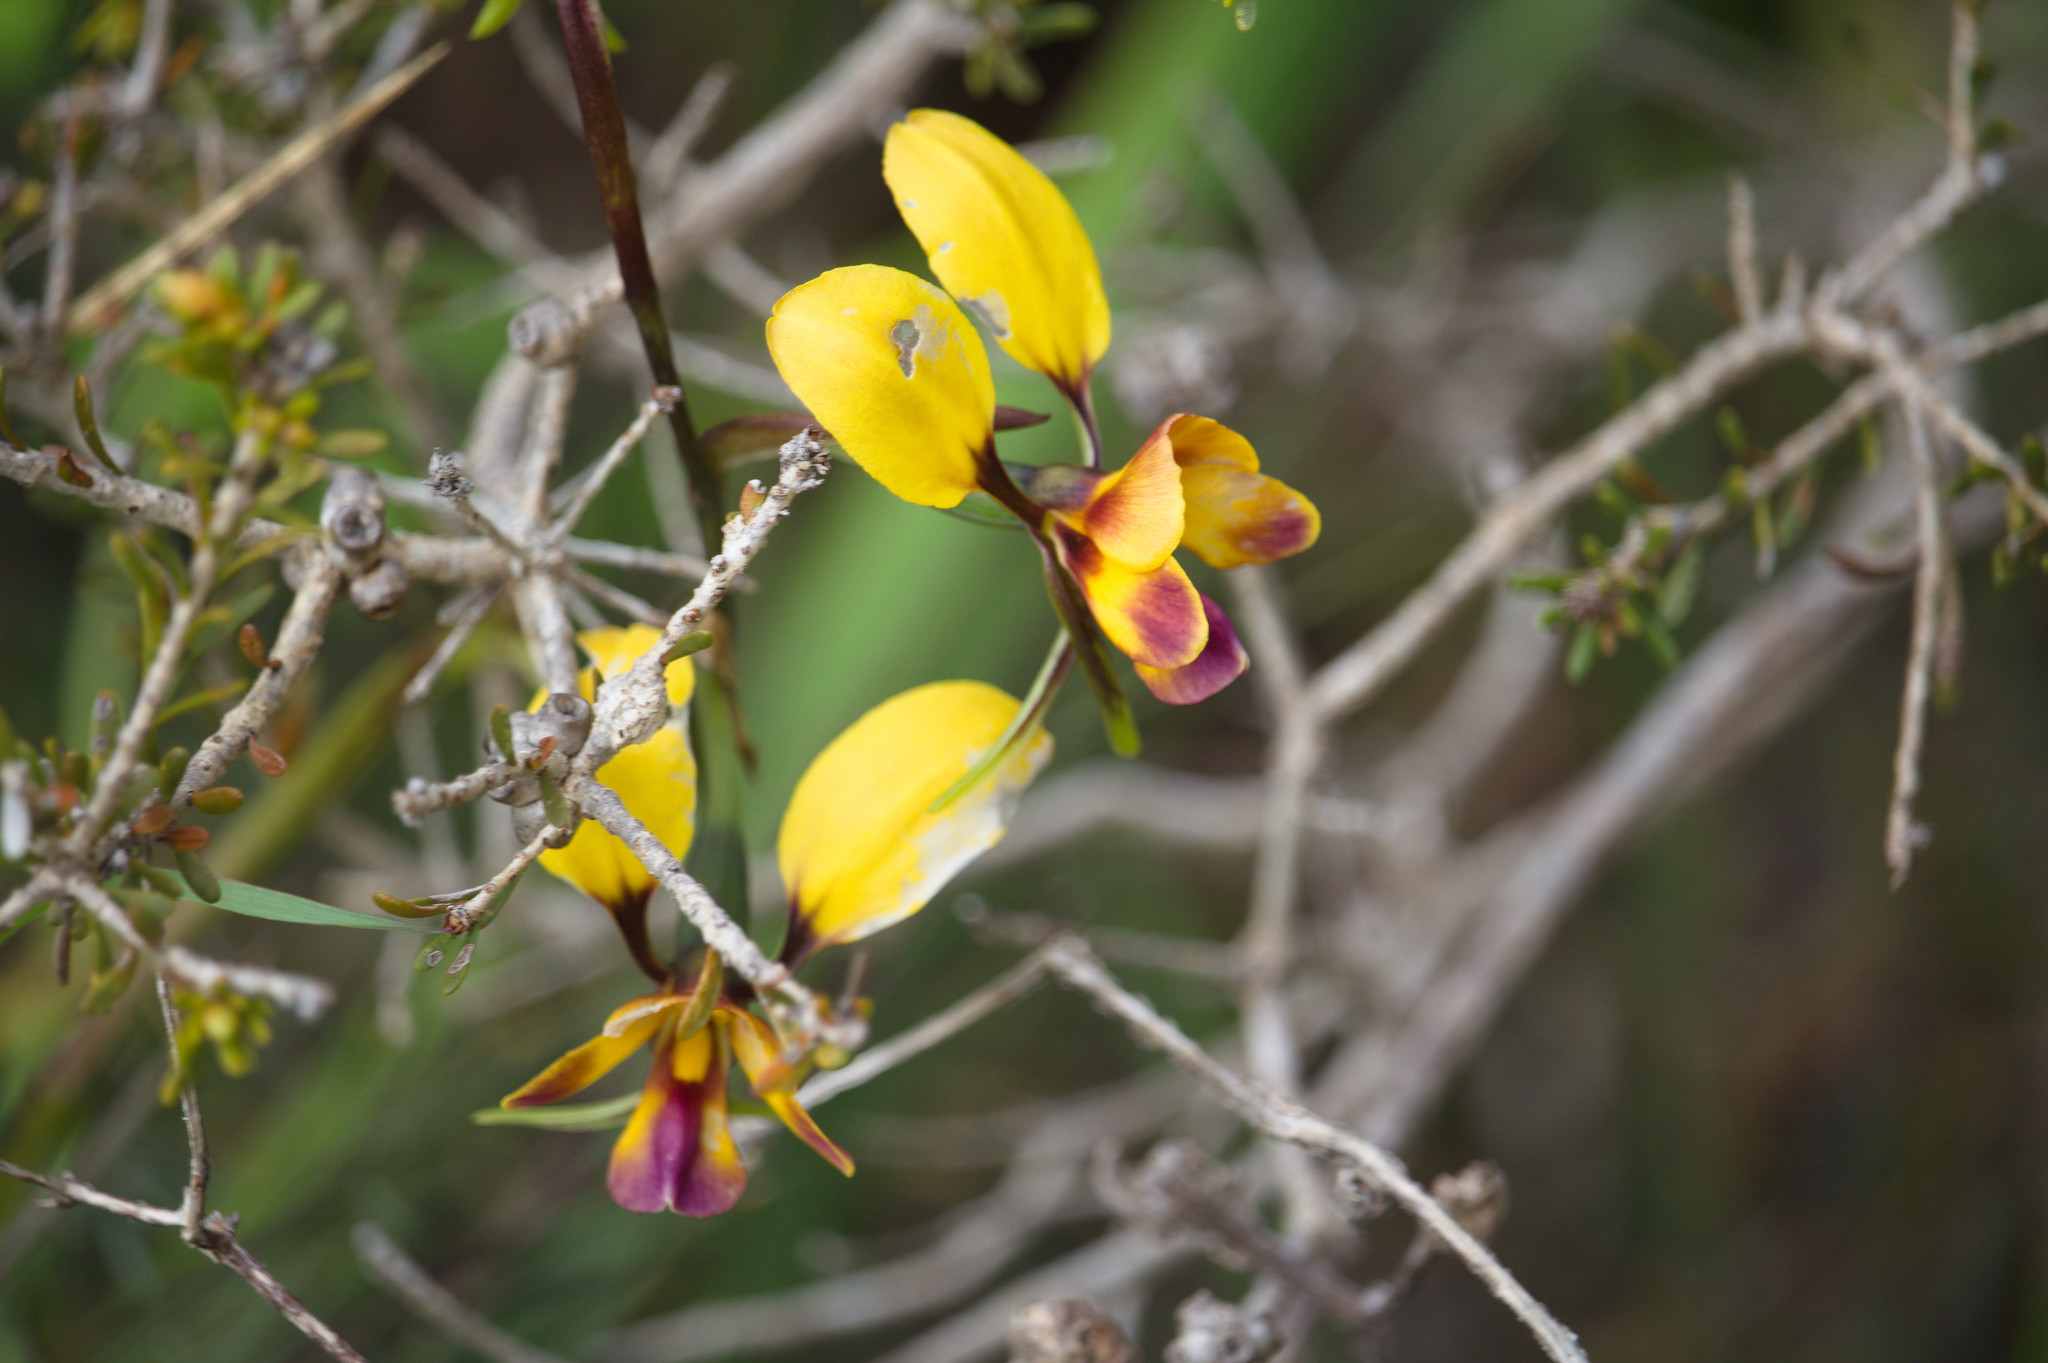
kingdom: Plantae
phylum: Tracheophyta
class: Liliopsida
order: Asparagales
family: Orchidaceae
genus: Diuris
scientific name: Diuris magnifica
